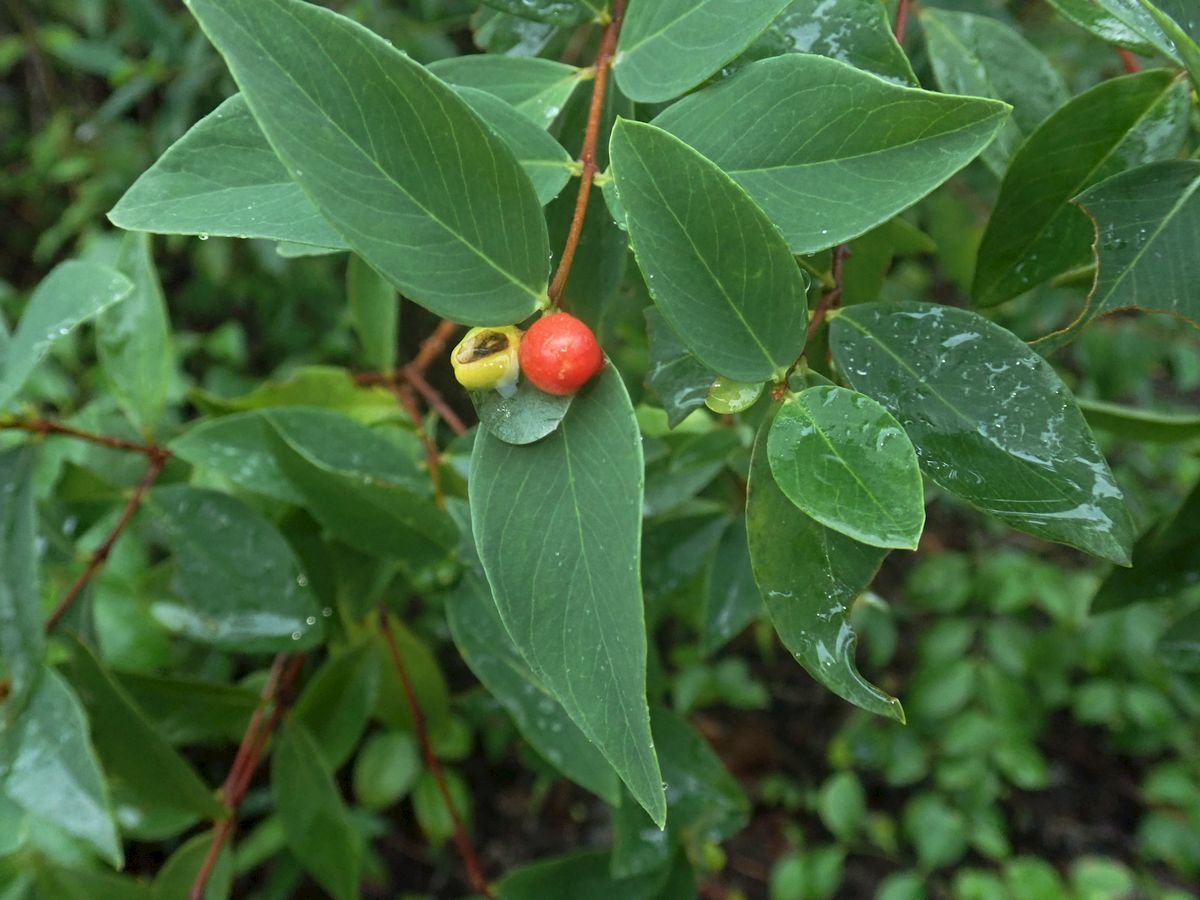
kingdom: Plantae
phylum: Tracheophyta
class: Magnoliopsida
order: Malvales
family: Thymelaeaceae
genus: Wikstroemia
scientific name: Wikstroemia indica
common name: Tiebush
